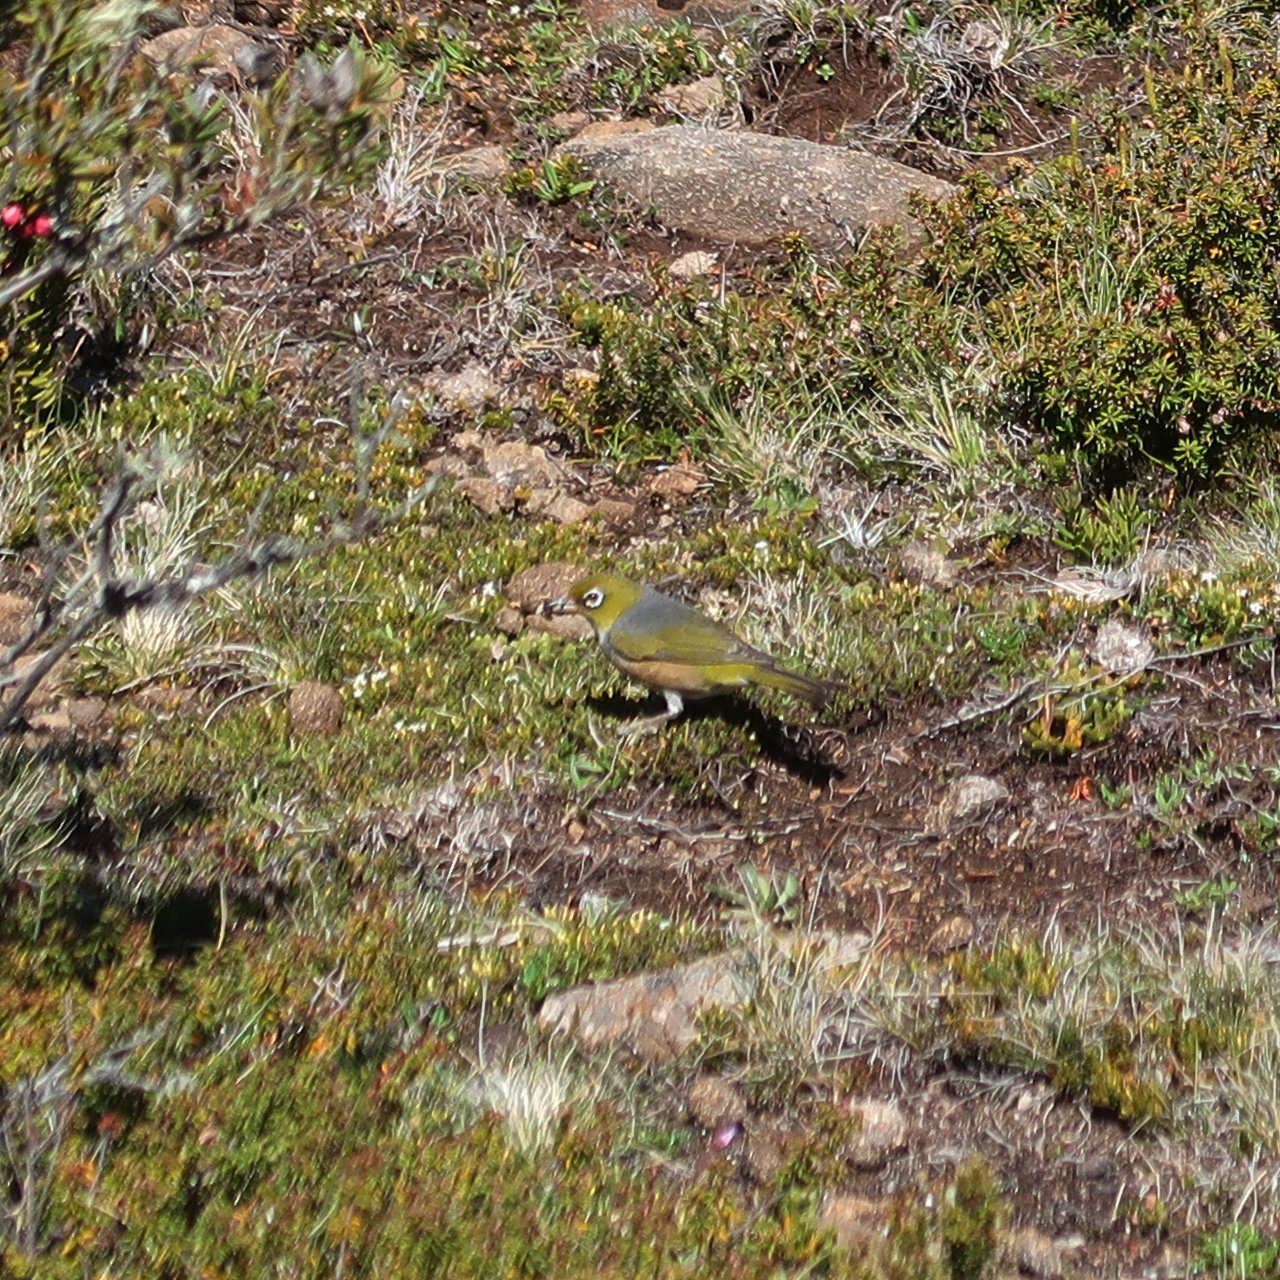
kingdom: Animalia
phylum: Chordata
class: Aves
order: Passeriformes
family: Zosteropidae
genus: Zosterops
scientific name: Zosterops lateralis
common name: Silvereye
